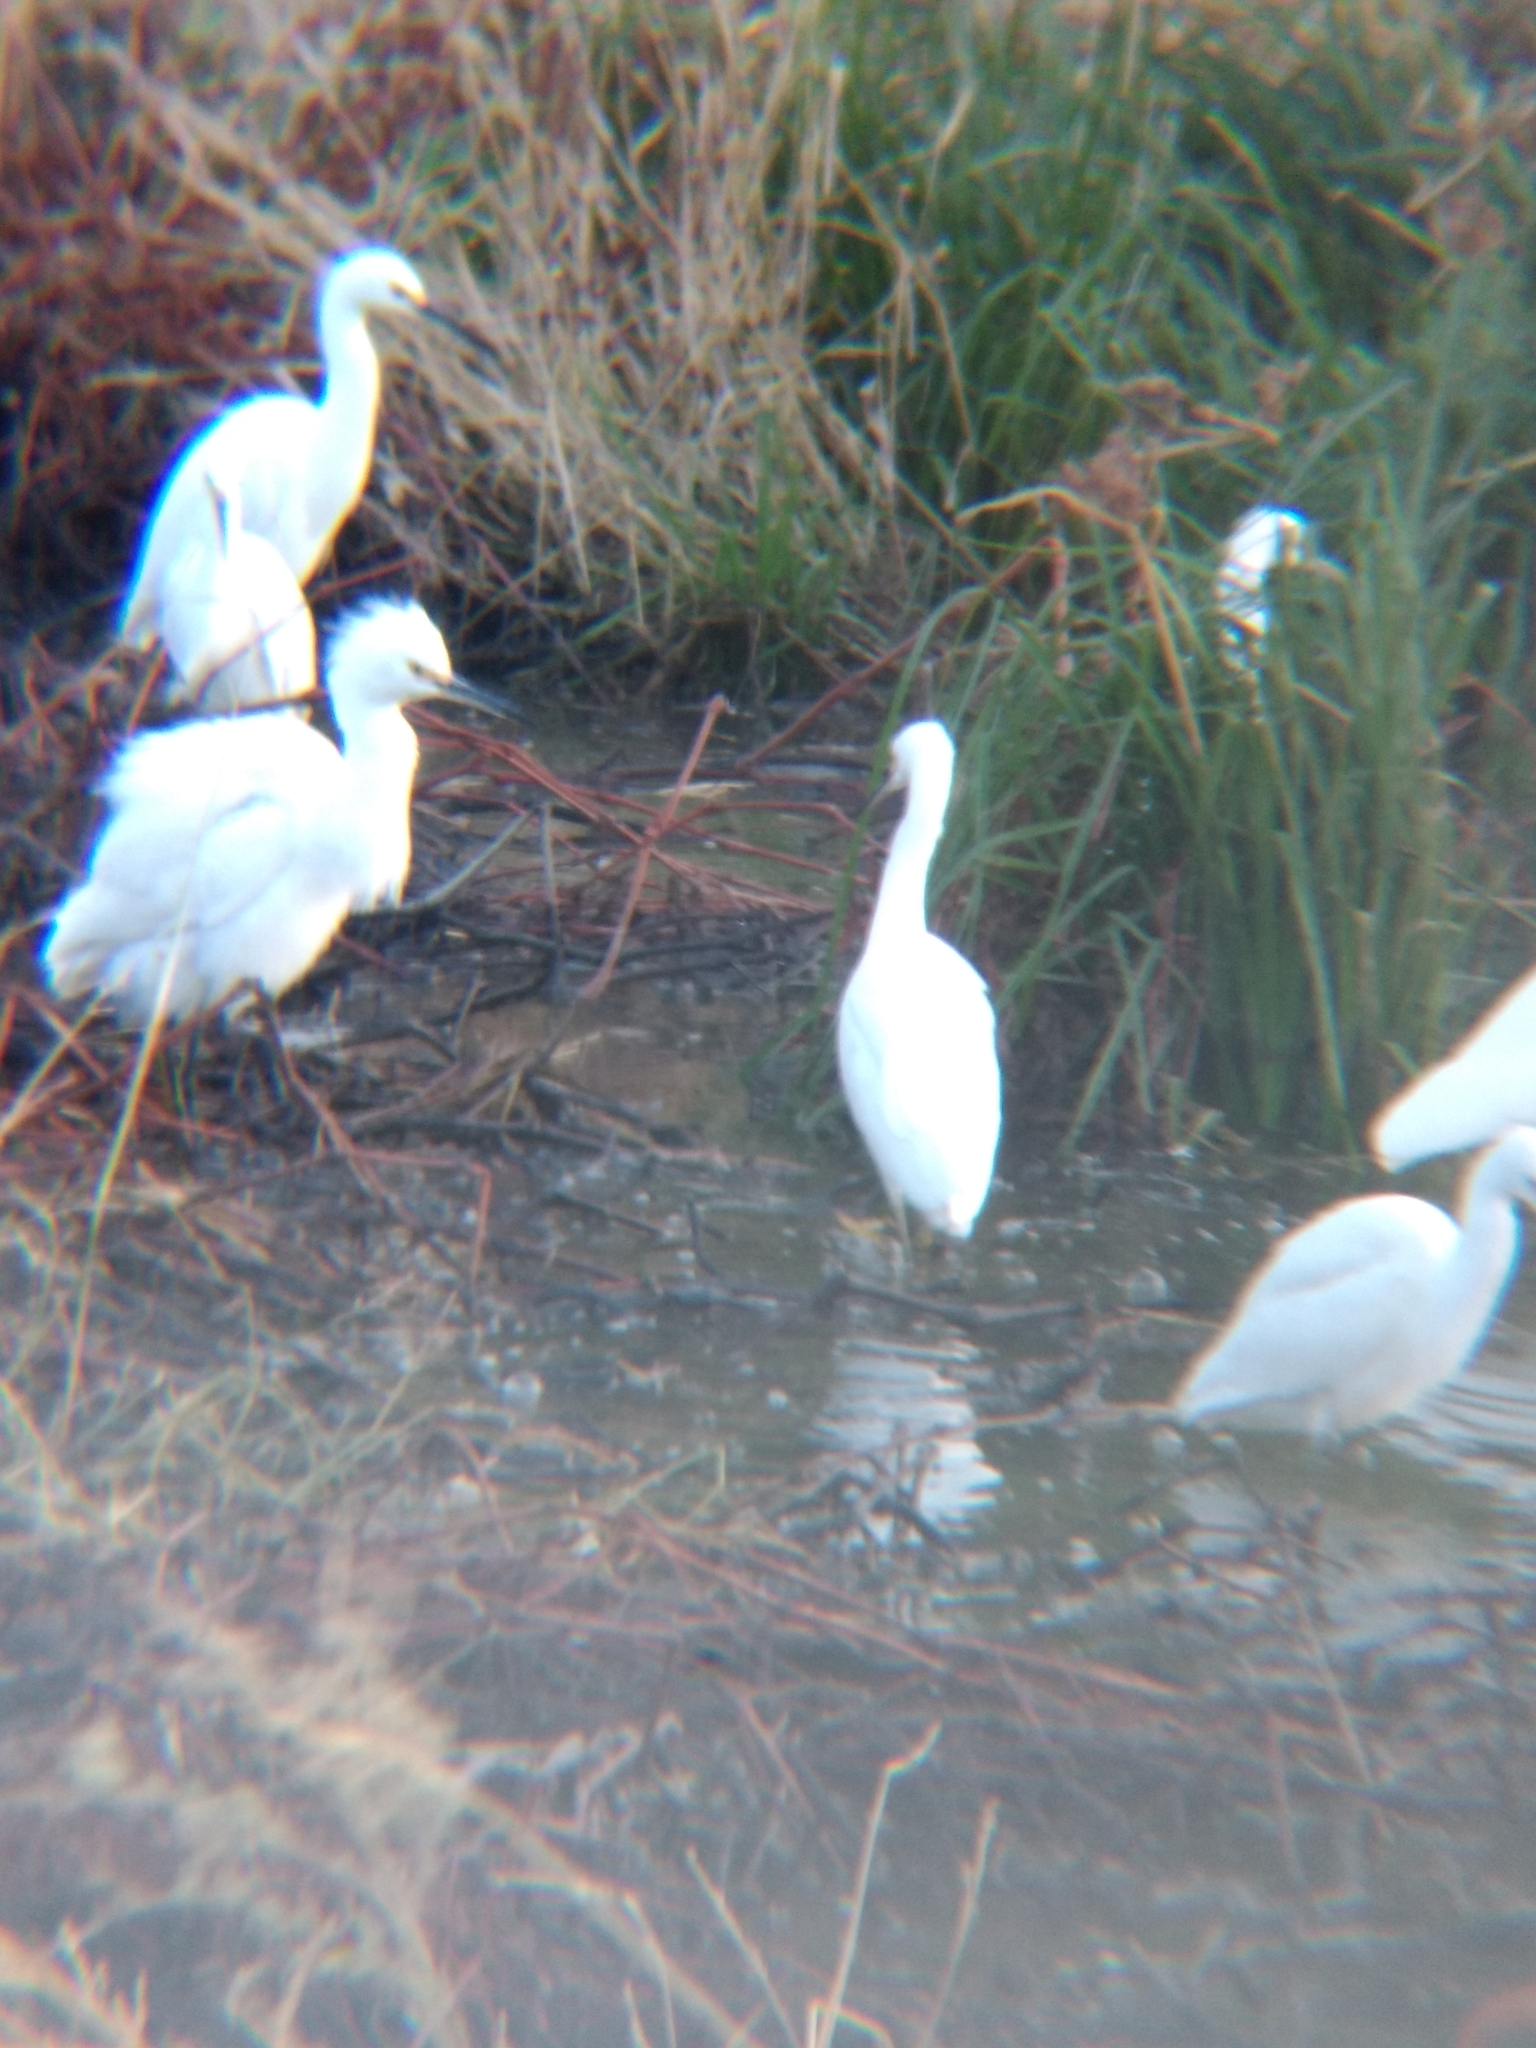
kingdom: Animalia
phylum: Chordata
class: Aves
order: Pelecaniformes
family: Ardeidae
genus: Egretta
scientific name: Egretta thula
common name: Snowy egret
